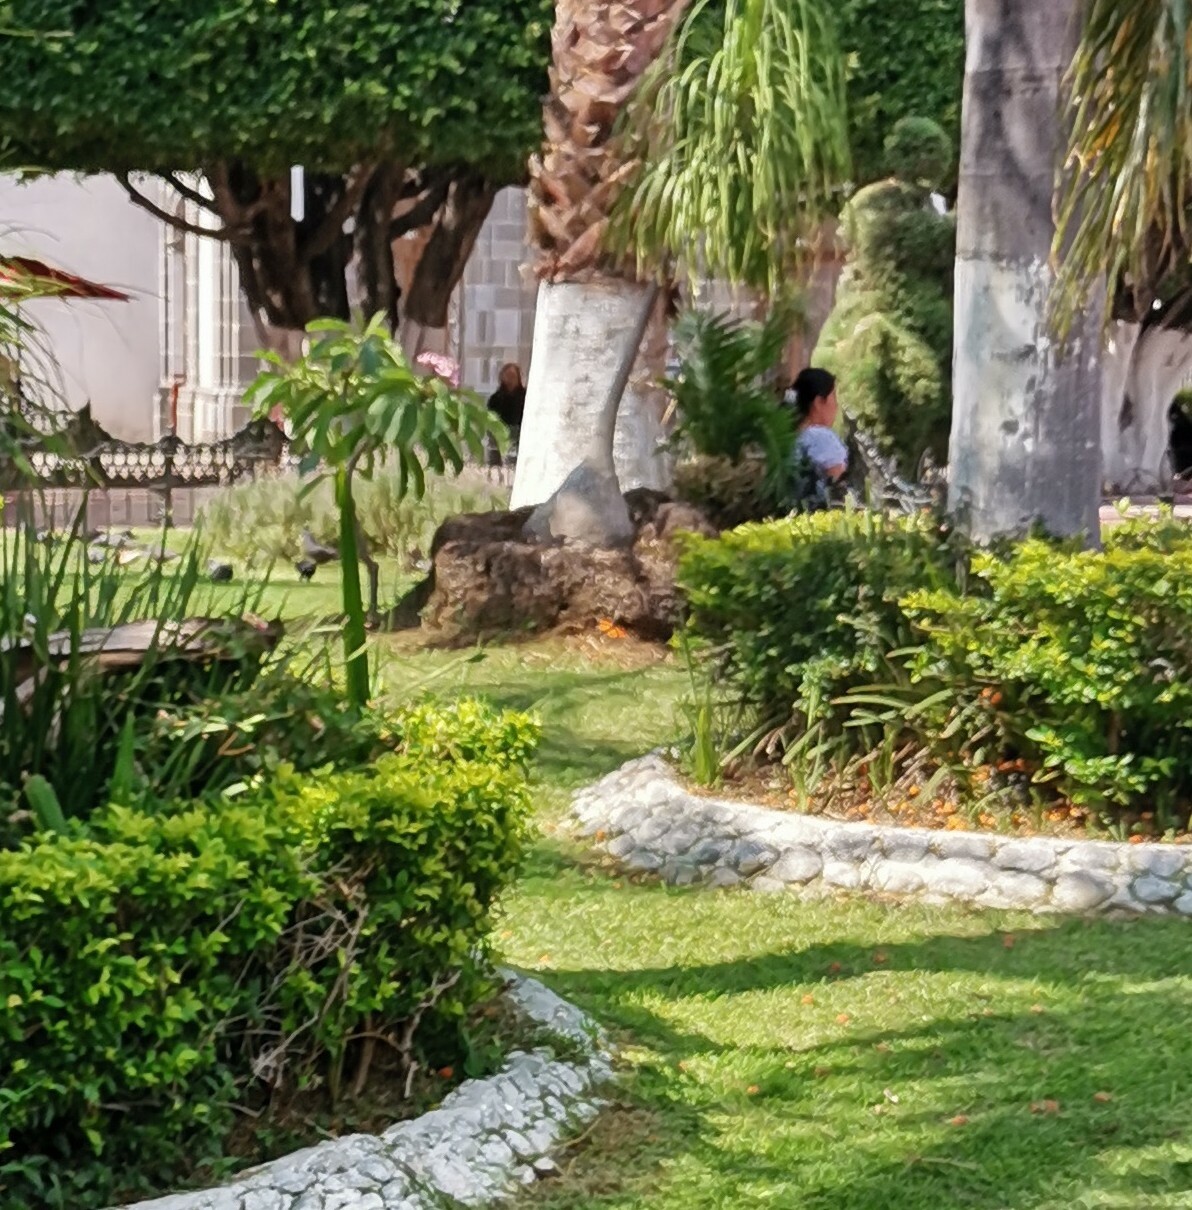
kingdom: Animalia
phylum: Arthropoda
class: Insecta
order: Lepidoptera
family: Nymphalidae
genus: Danaus
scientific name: Danaus plexippus
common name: Monarch
